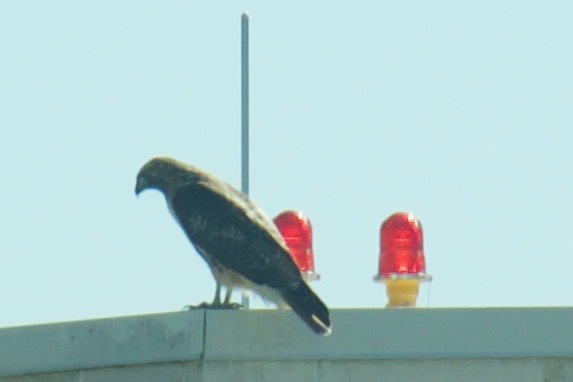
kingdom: Animalia
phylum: Chordata
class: Aves
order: Accipitriformes
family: Accipitridae
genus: Buteo
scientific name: Buteo jamaicensis
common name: Red-tailed hawk
